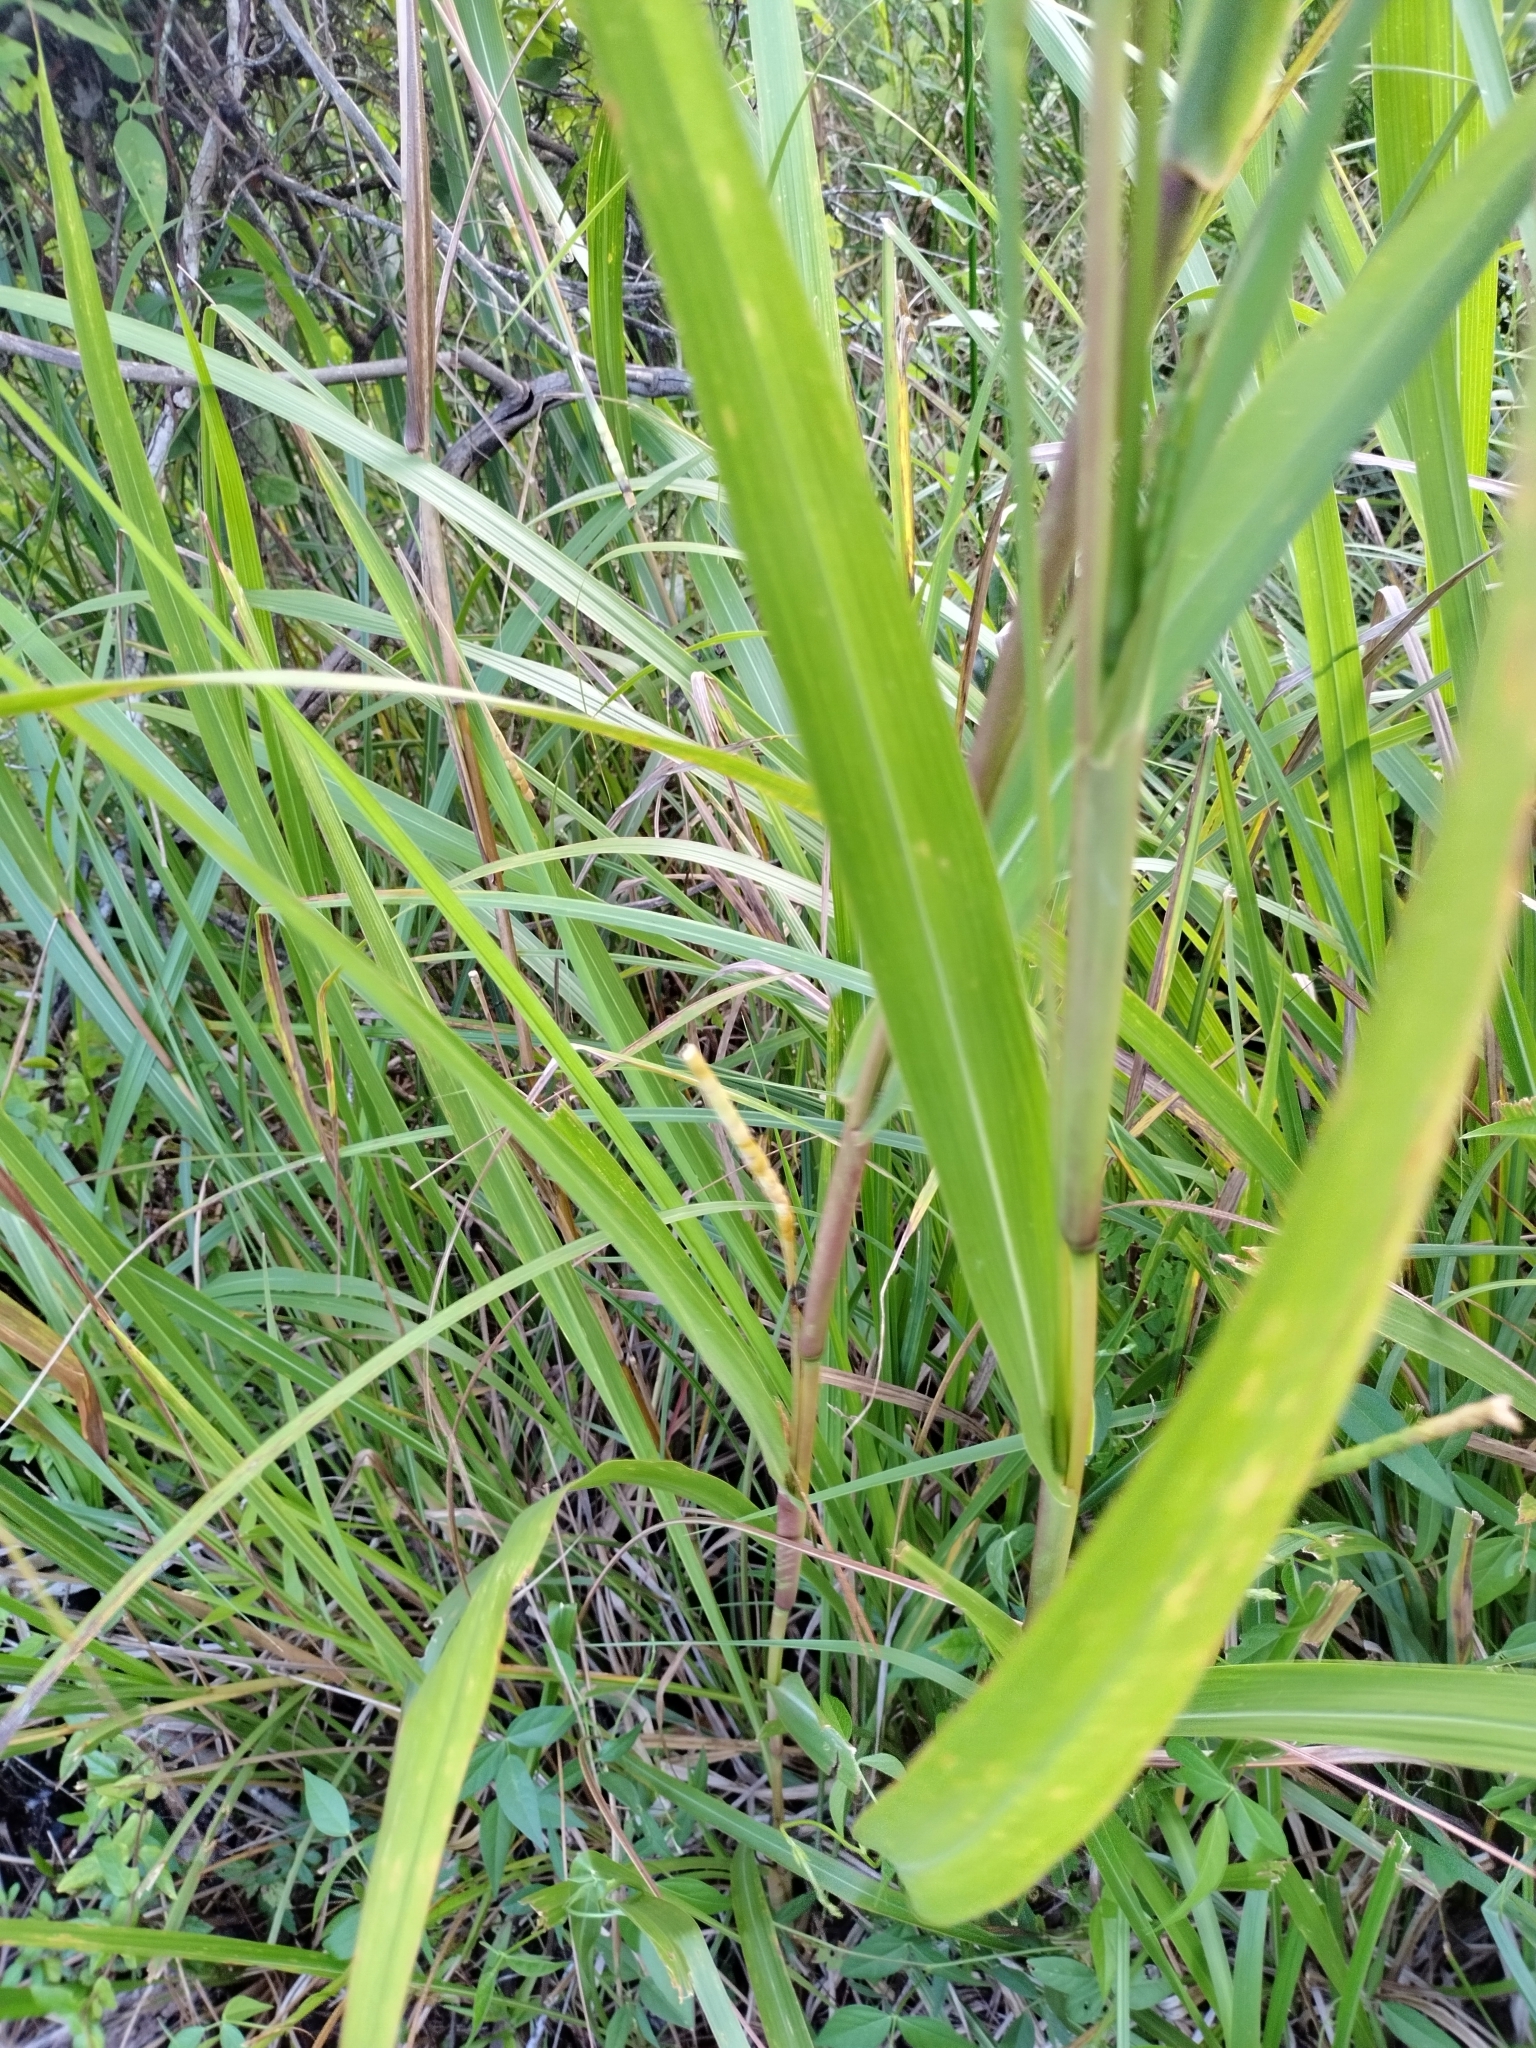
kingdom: Plantae
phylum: Tracheophyta
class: Liliopsida
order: Poales
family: Poaceae
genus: Tripsacum
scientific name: Tripsacum dactyloides
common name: Buffalo-grass
